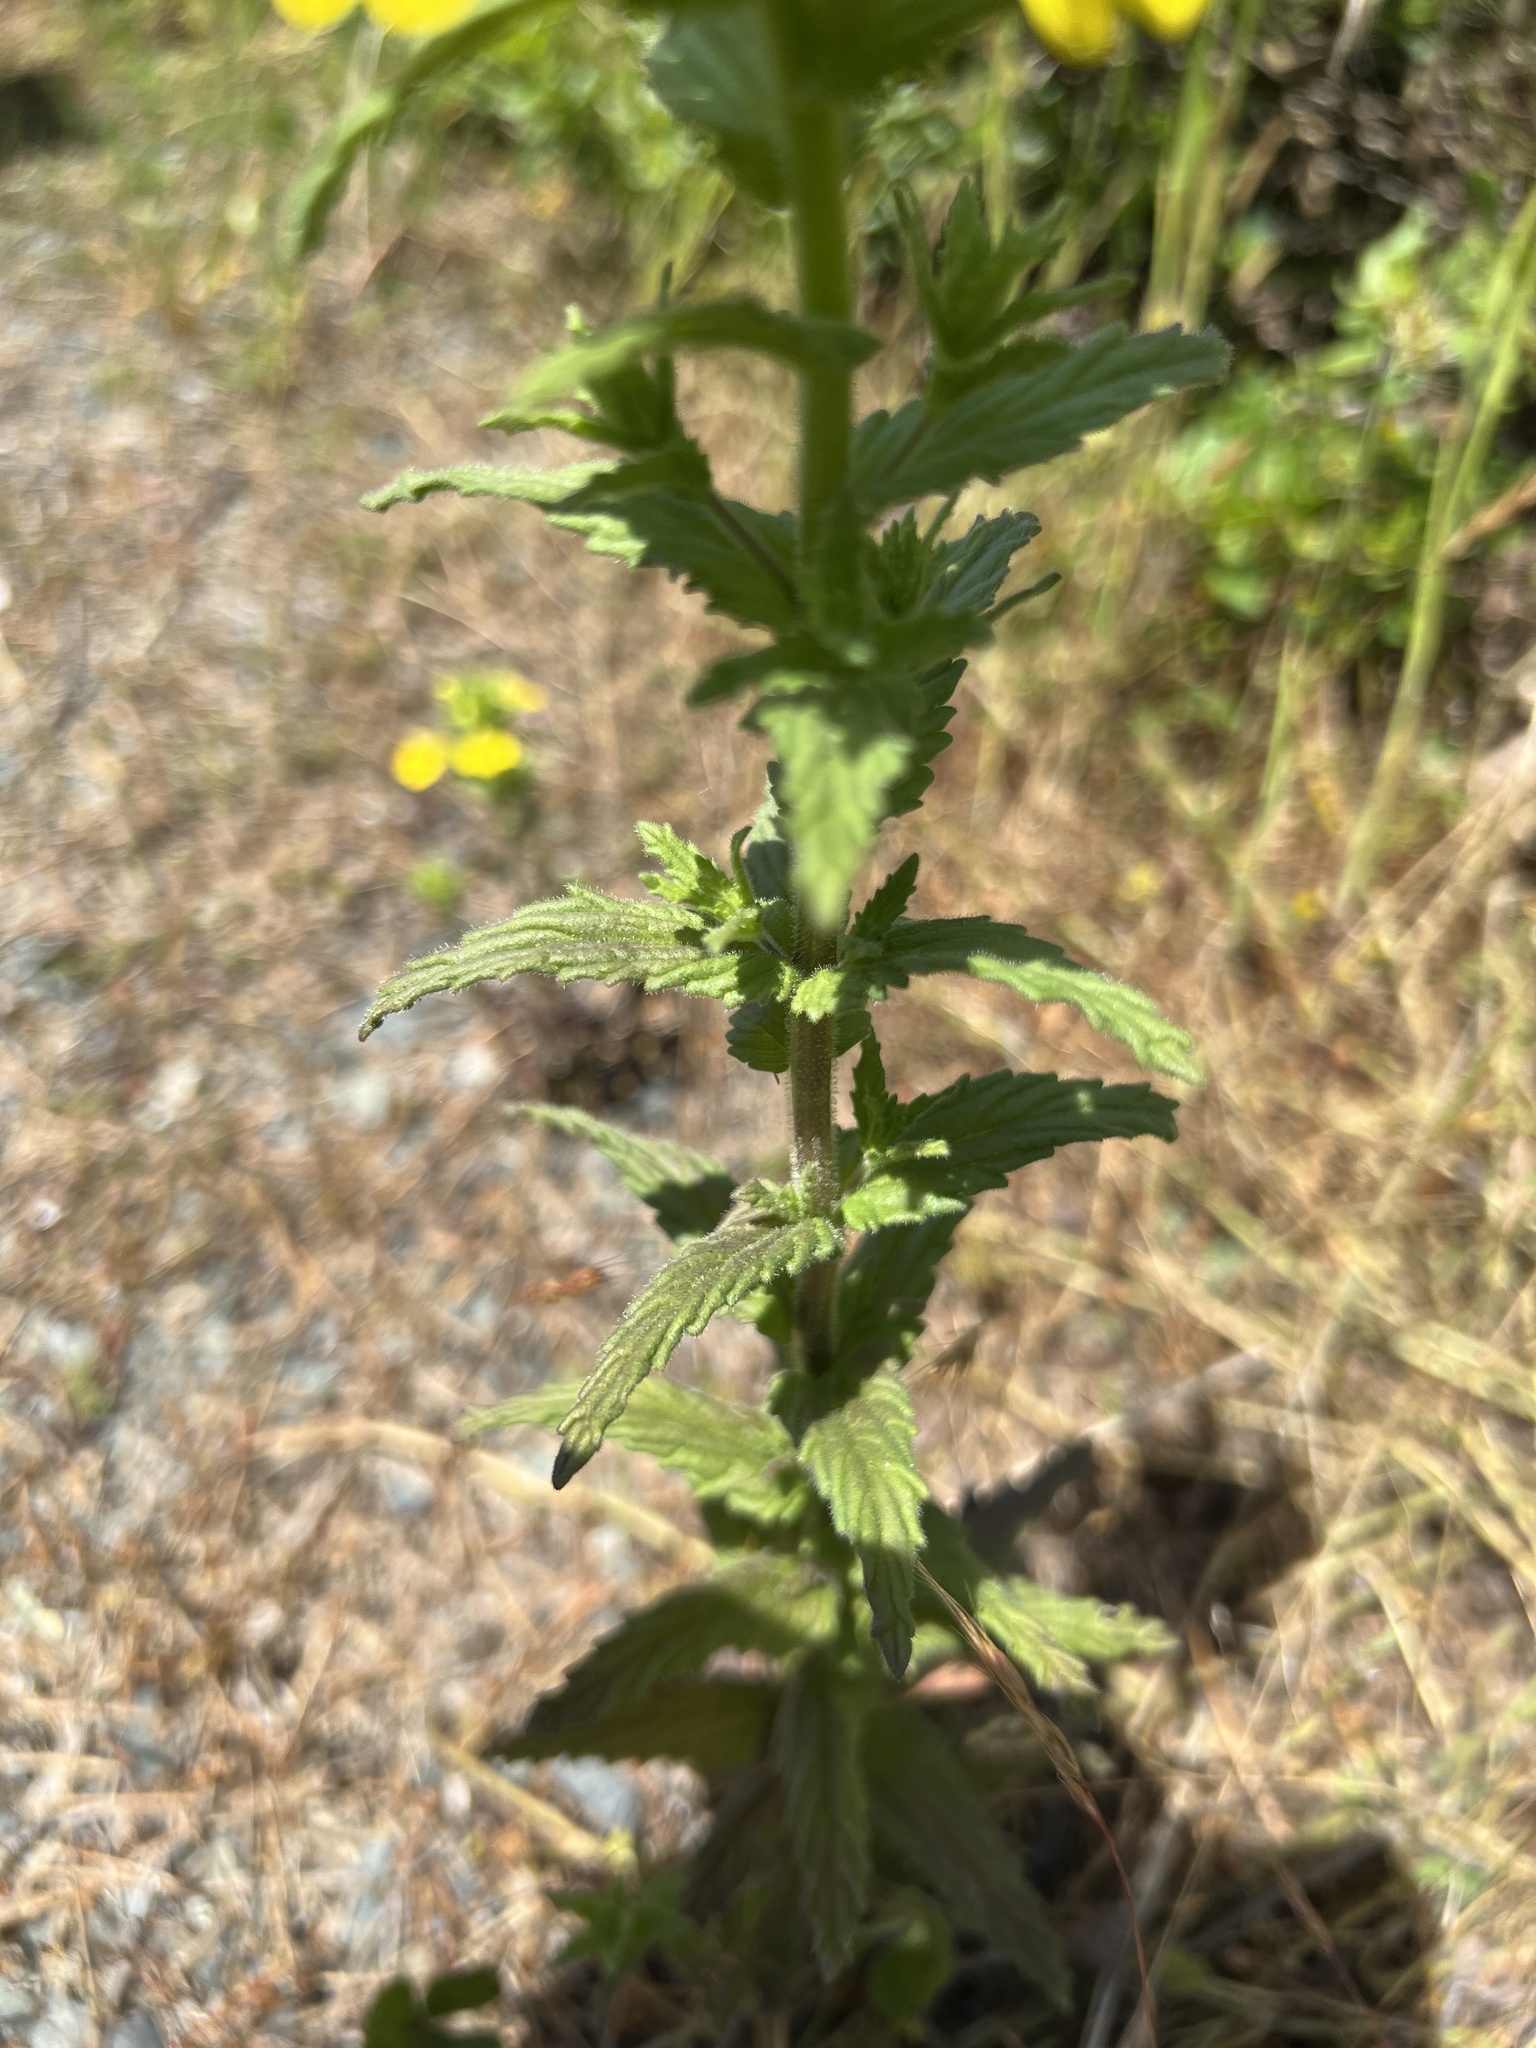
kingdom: Plantae
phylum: Tracheophyta
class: Magnoliopsida
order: Lamiales
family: Orobanchaceae
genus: Bellardia
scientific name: Bellardia viscosa
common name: Sticky parentucellia
